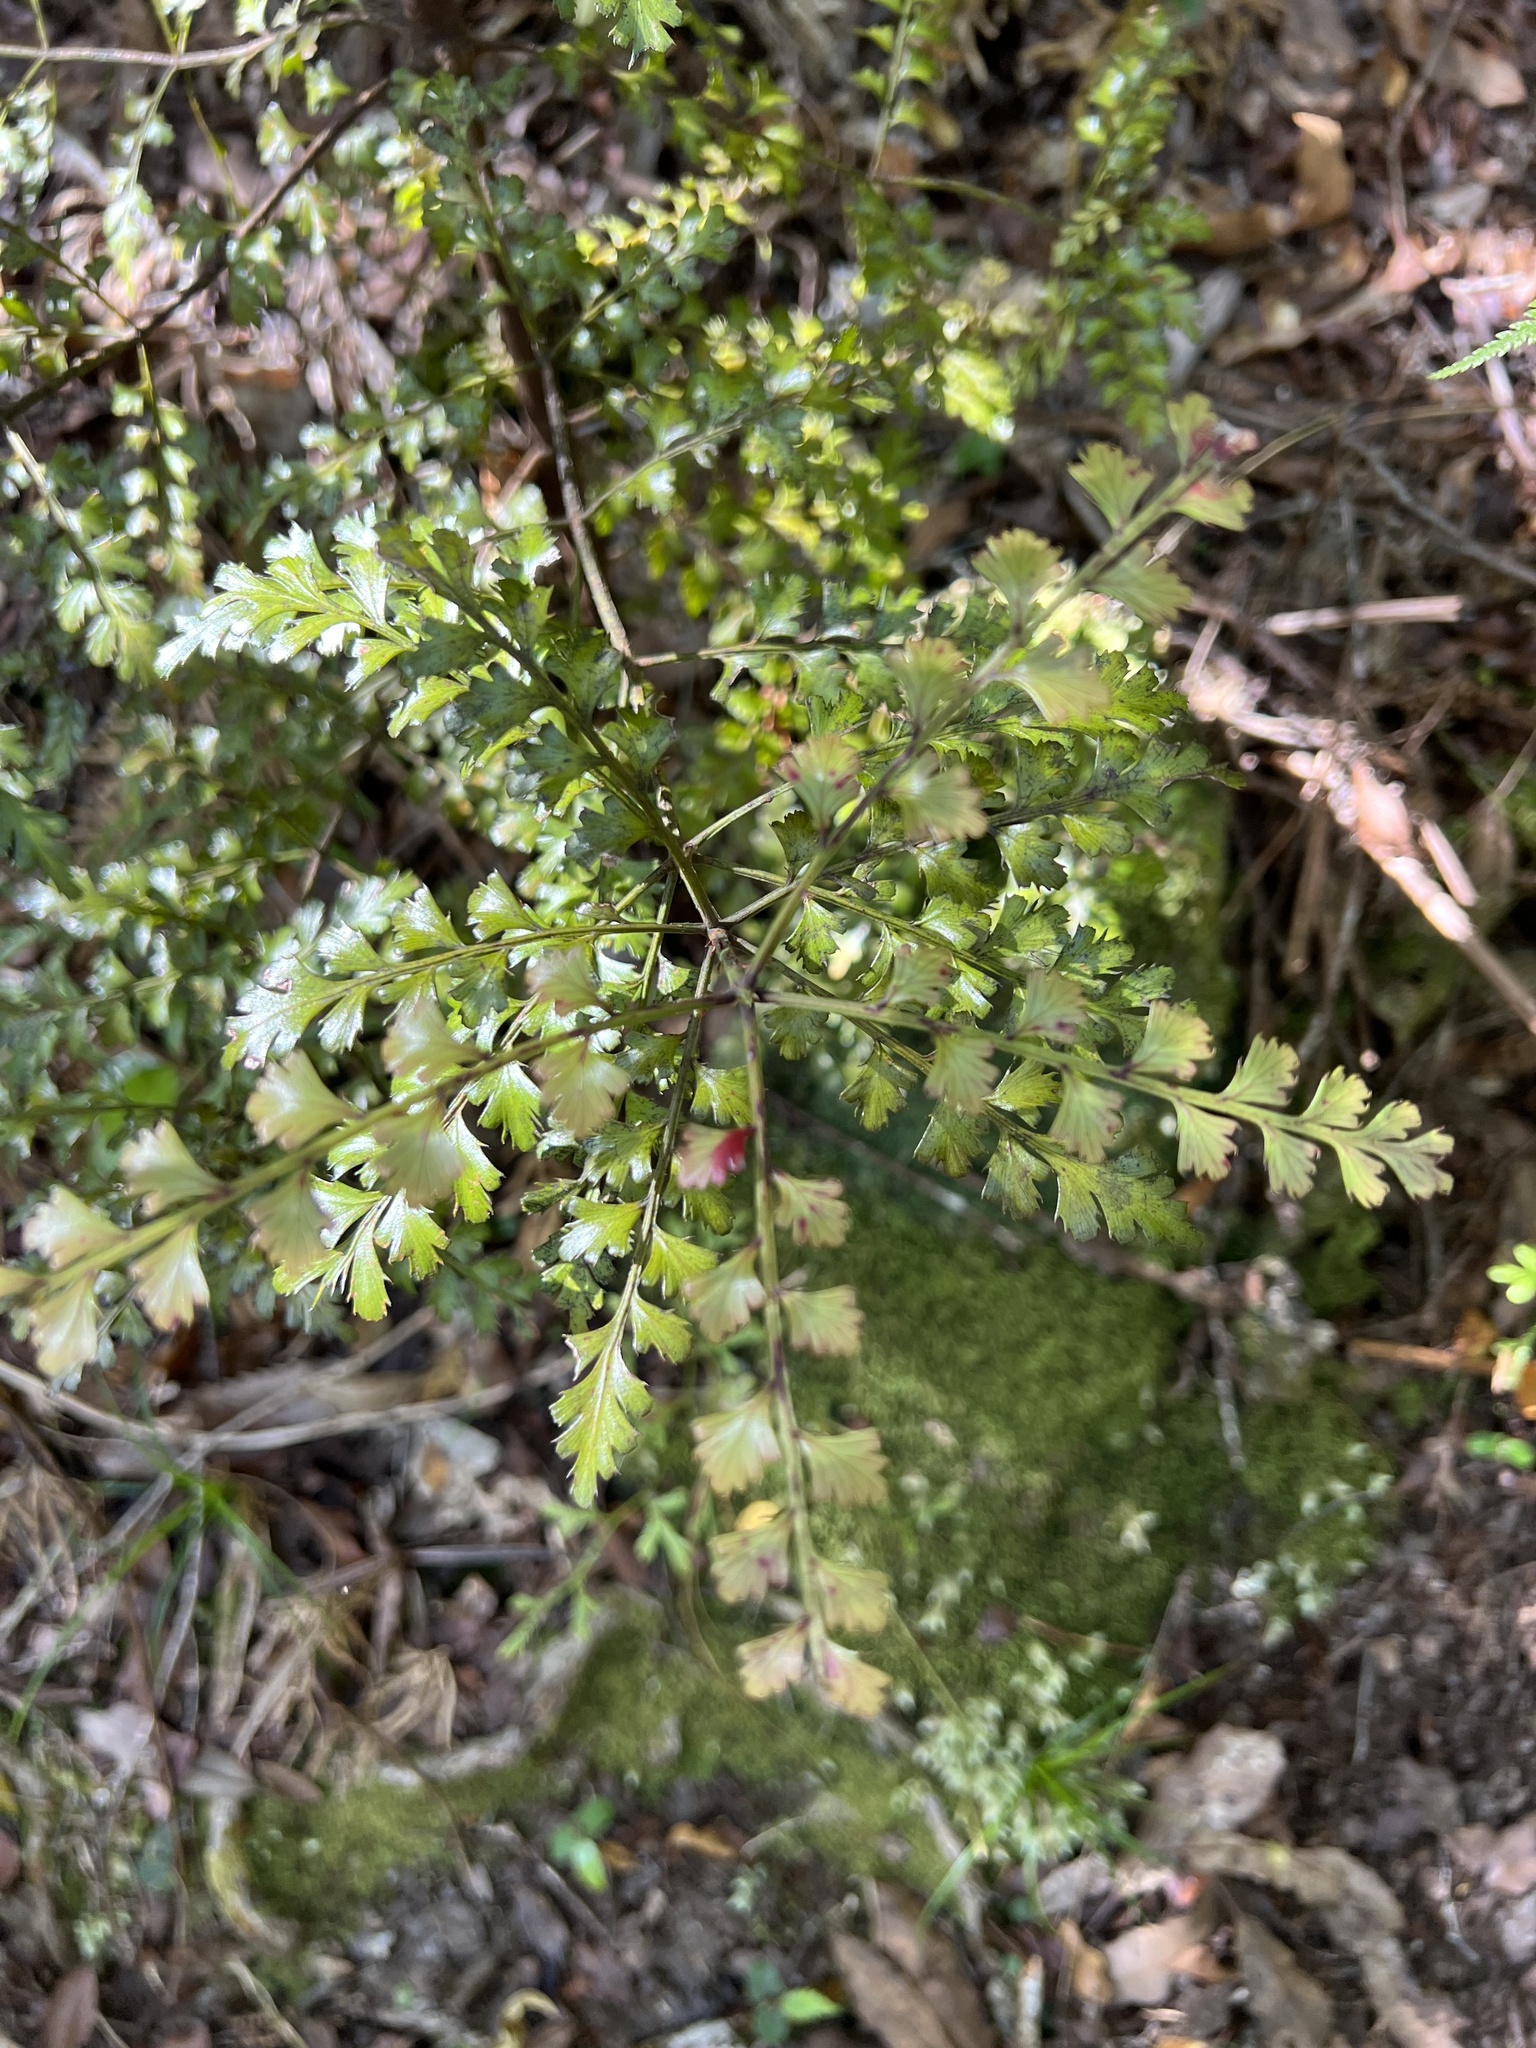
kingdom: Plantae
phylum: Tracheophyta
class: Pinopsida
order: Pinales
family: Phyllocladaceae
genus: Phyllocladus
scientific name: Phyllocladus trichomanoides
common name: Celery pine
